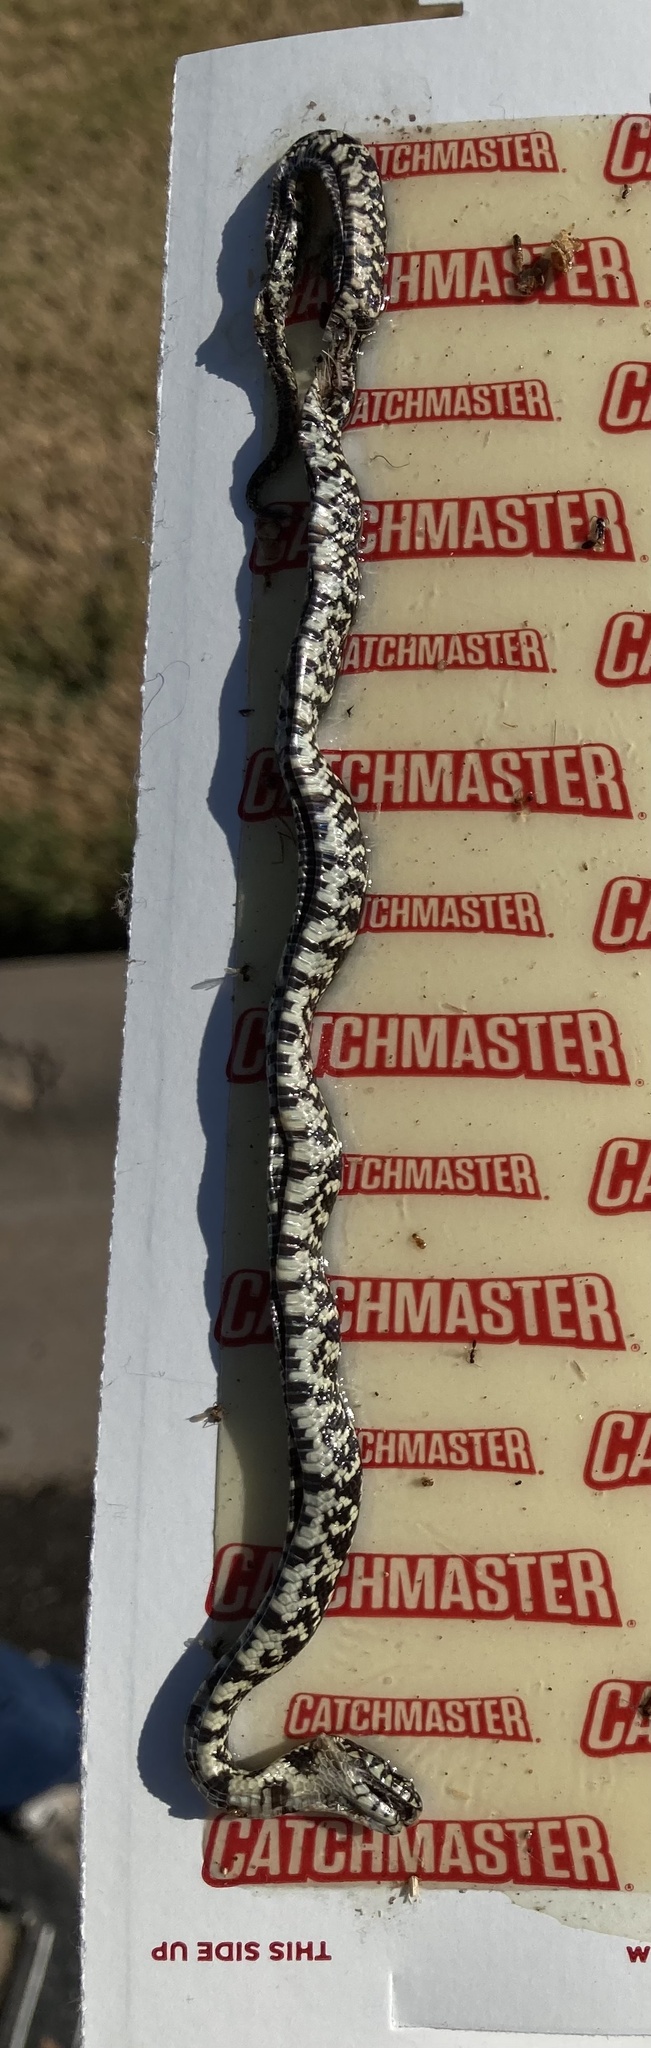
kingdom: Animalia
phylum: Chordata
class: Squamata
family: Colubridae
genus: Lampropeltis
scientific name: Lampropeltis holbrooki
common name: Speckled kingsnake
